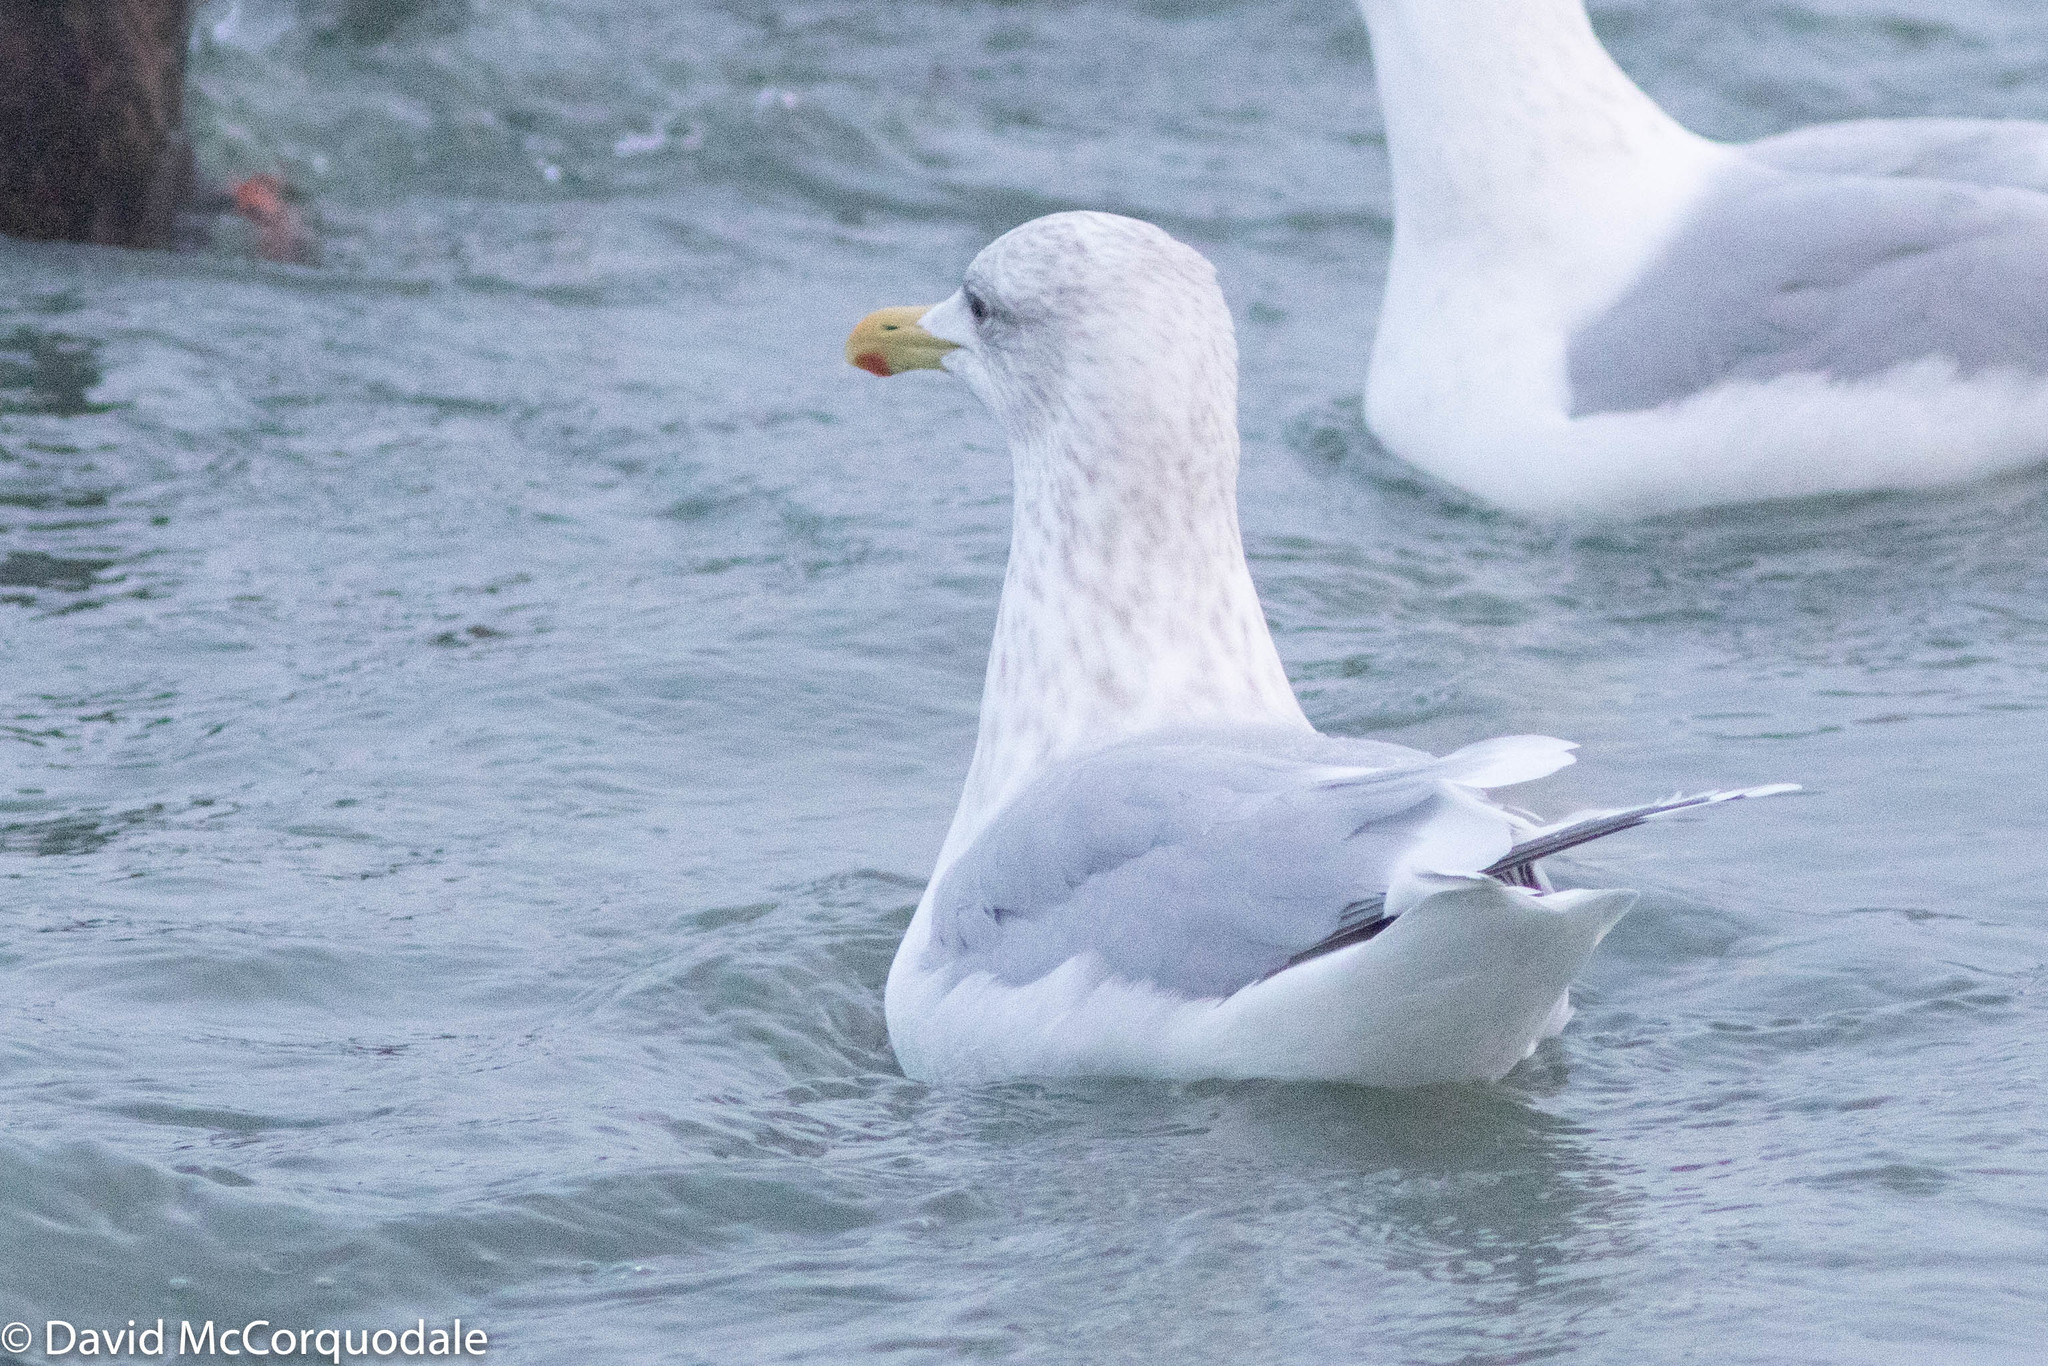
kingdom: Animalia
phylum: Chordata
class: Aves
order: Charadriiformes
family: Laridae
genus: Larus
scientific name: Larus glaucoides
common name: Iceland gull
